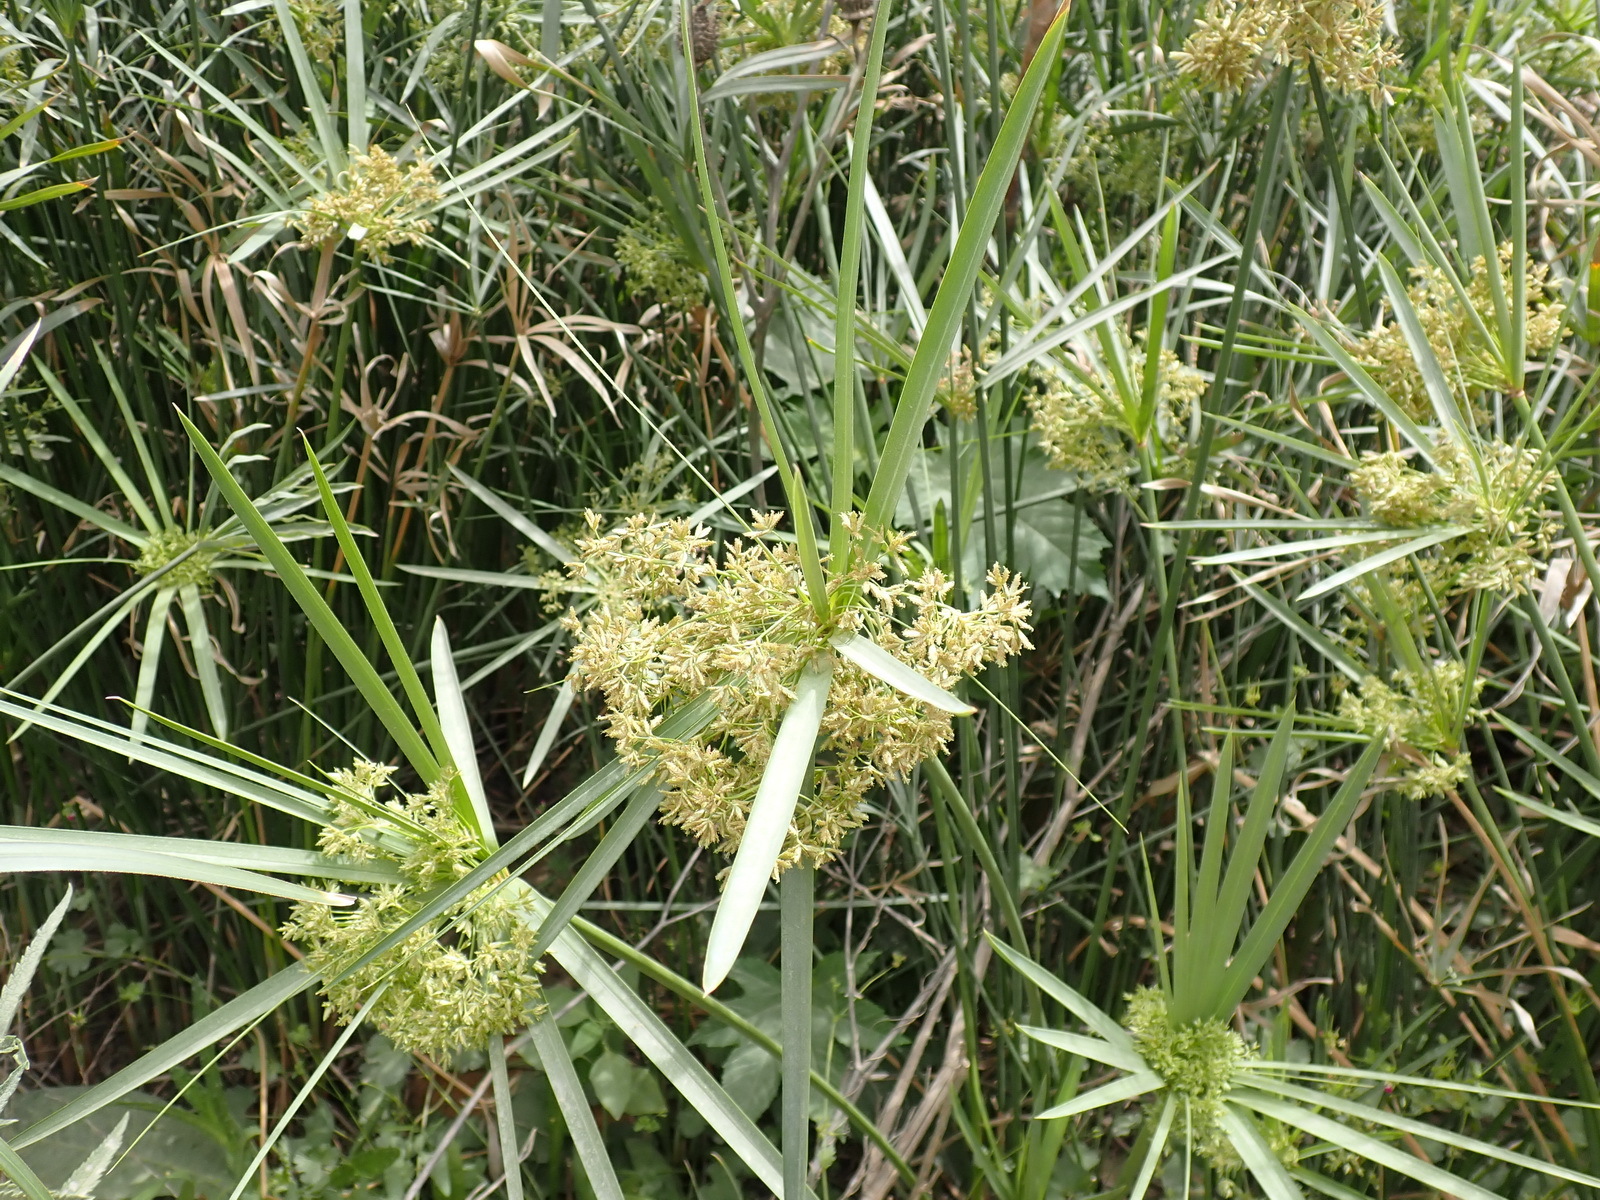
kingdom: Plantae
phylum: Tracheophyta
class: Liliopsida
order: Poales
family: Cyperaceae
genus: Cyperus
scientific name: Cyperus textilis
